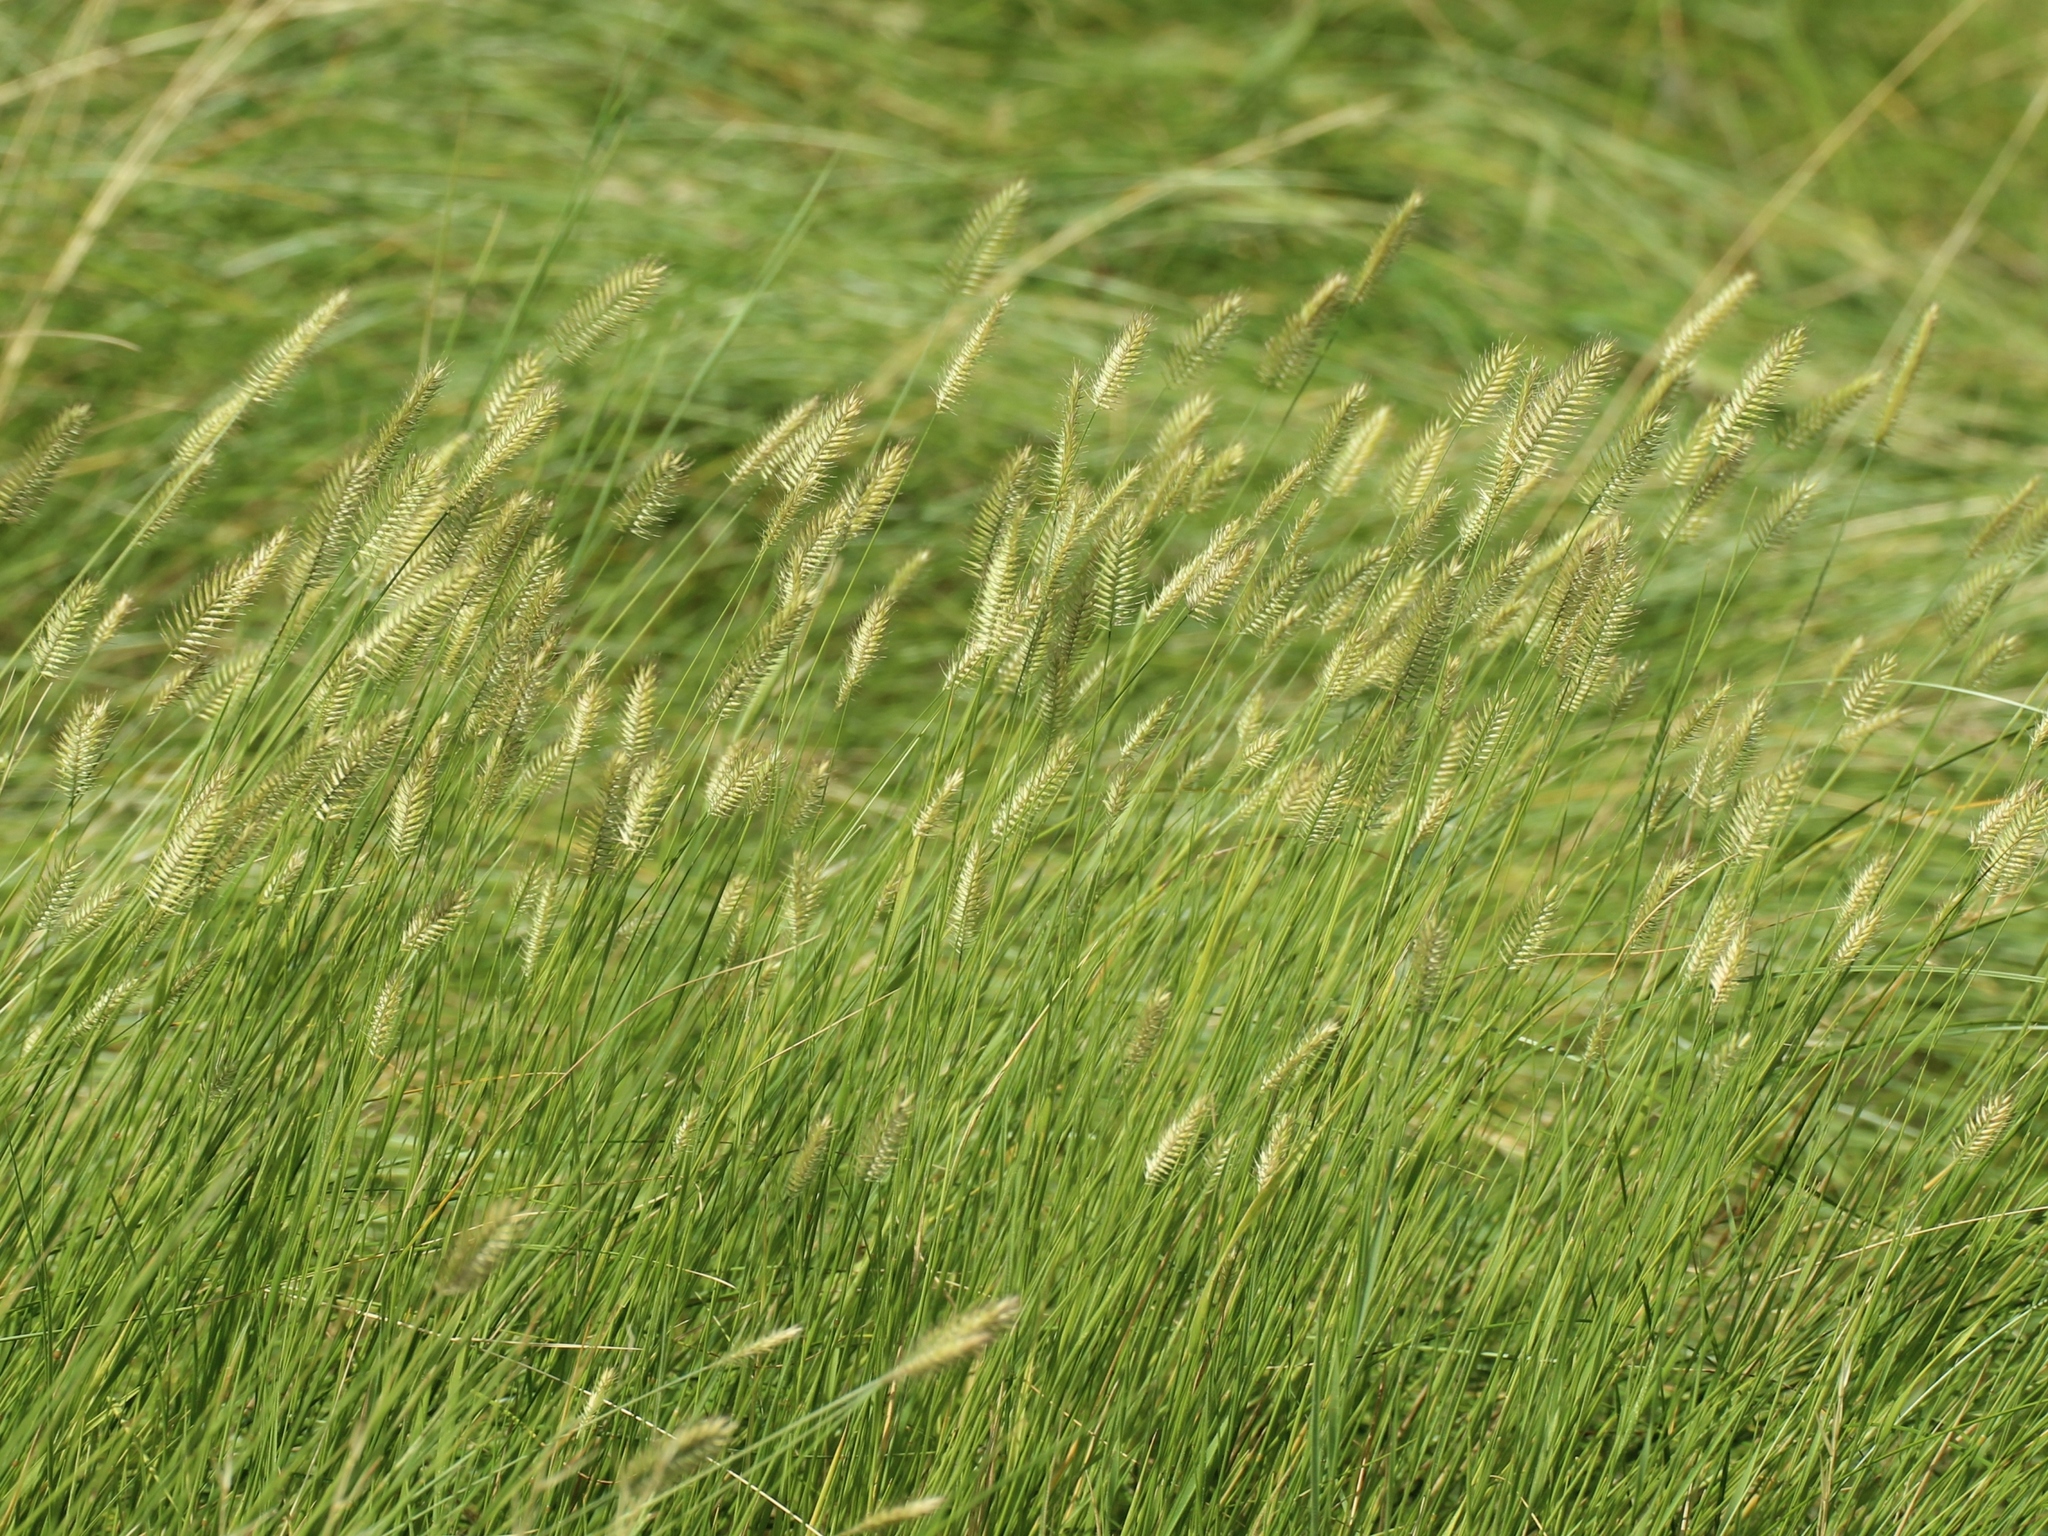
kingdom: Plantae
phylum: Tracheophyta
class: Liliopsida
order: Poales
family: Poaceae
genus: Agropyron
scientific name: Agropyron cristatum
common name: Crested wheatgrass
